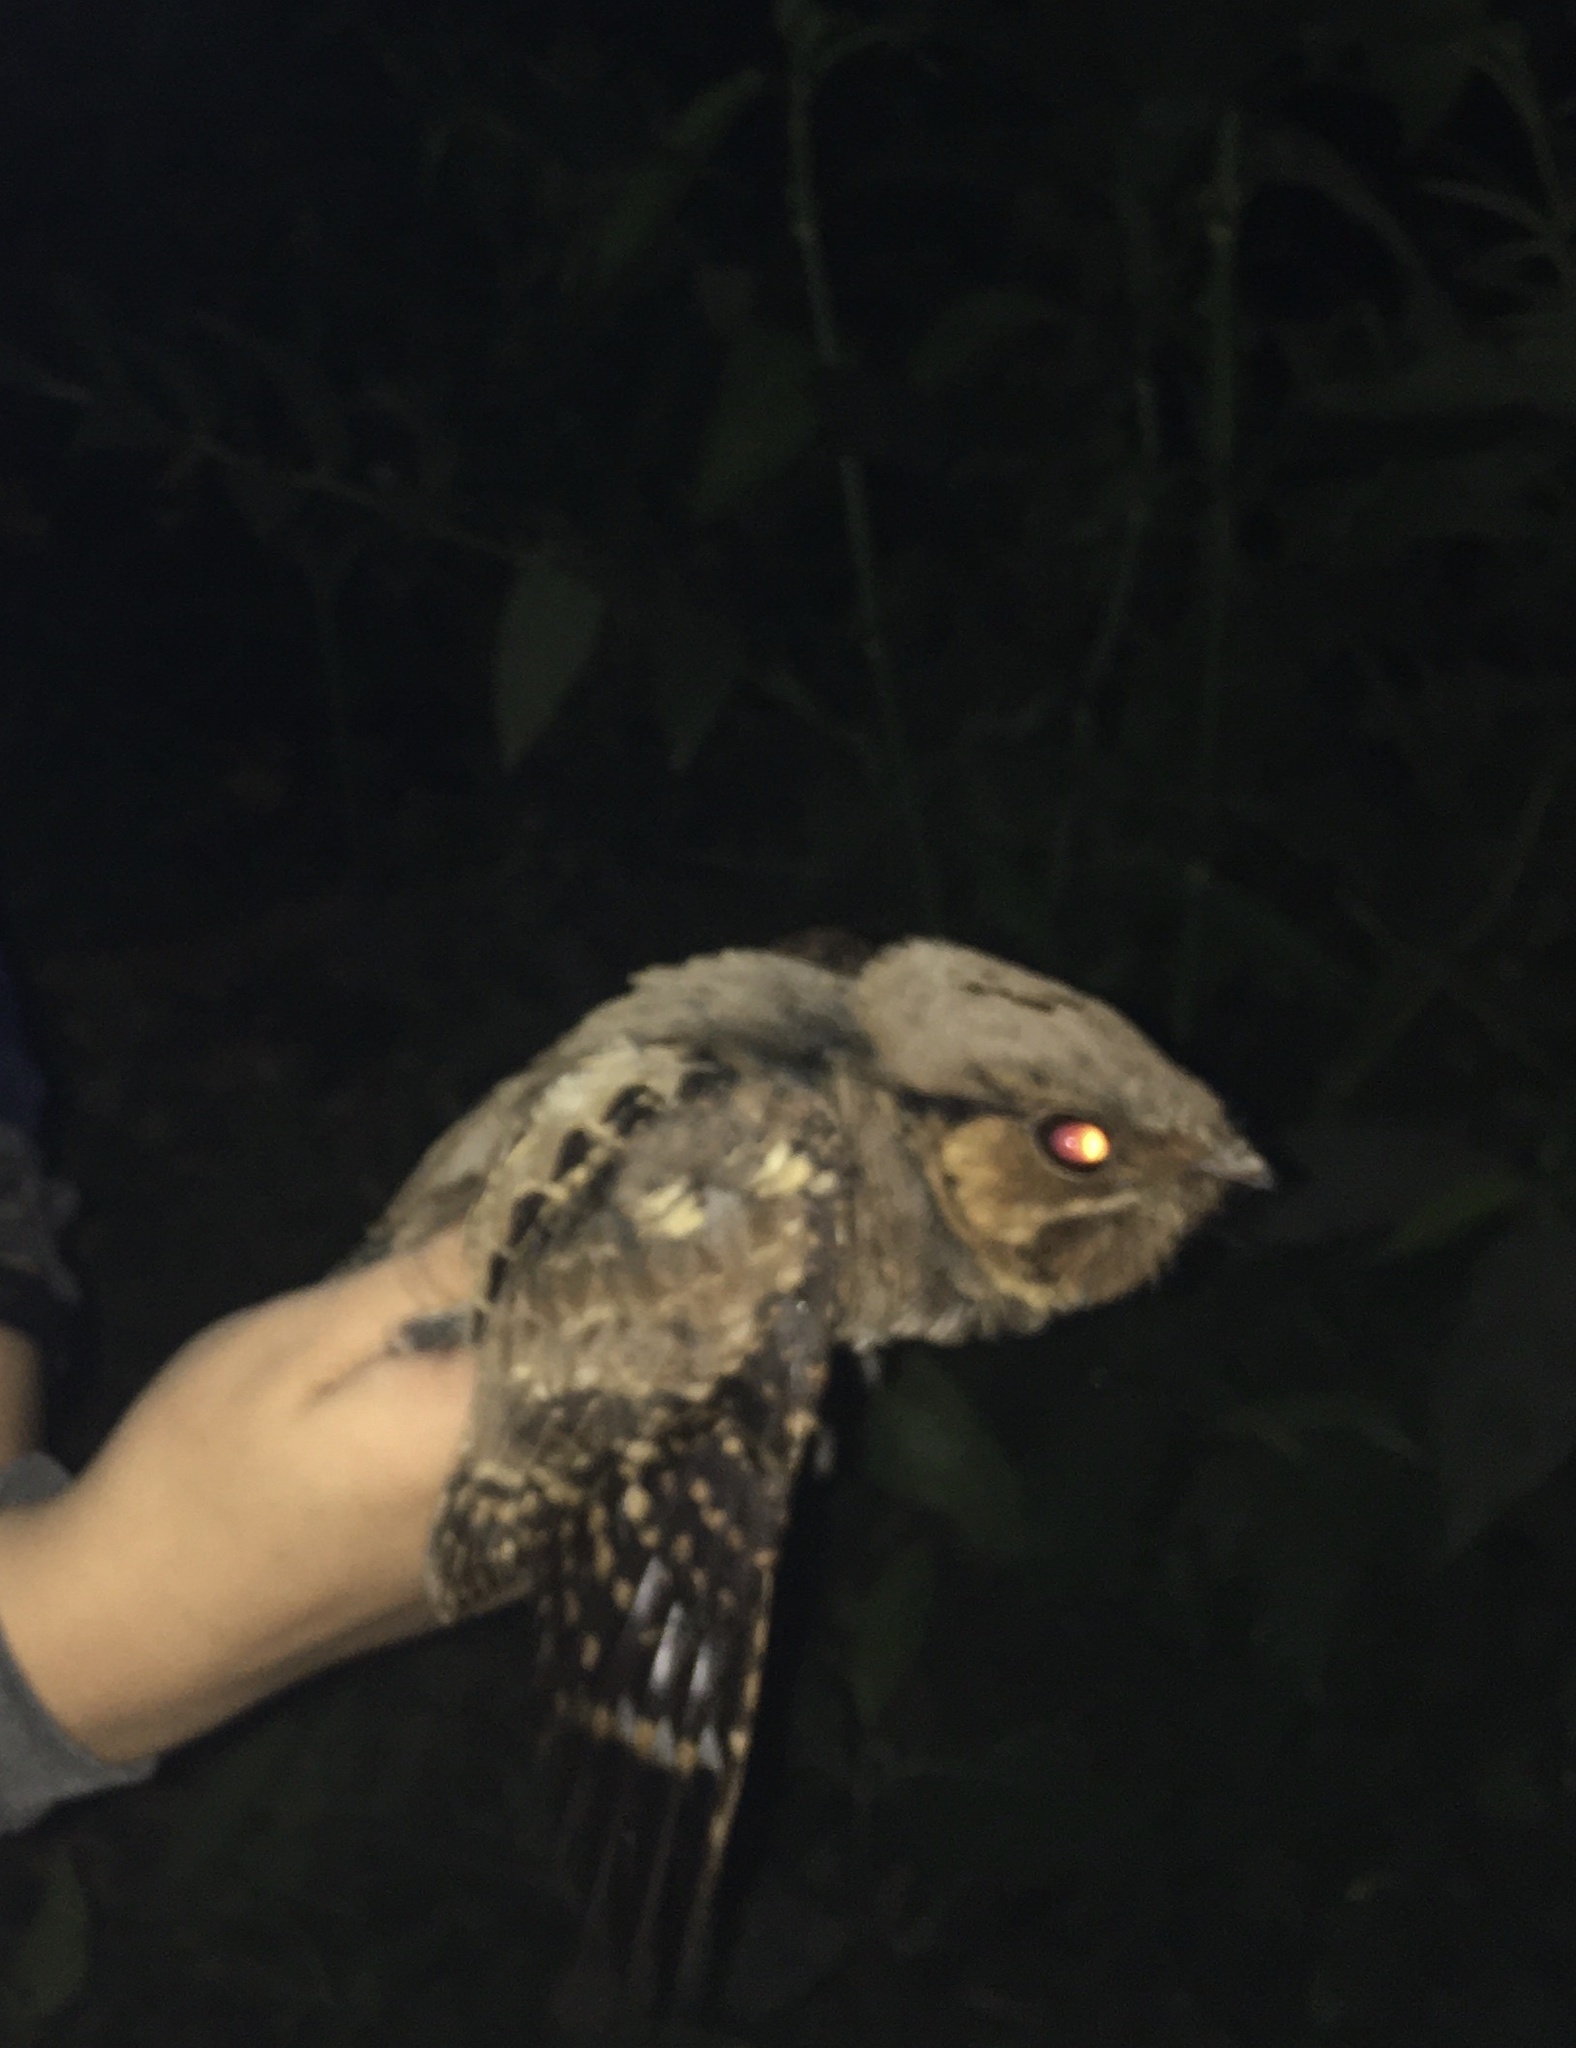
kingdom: Animalia
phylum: Chordata
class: Aves
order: Caprimulgiformes
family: Caprimulgidae
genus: Nyctidromus
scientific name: Nyctidromus albicollis
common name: Pauraque
